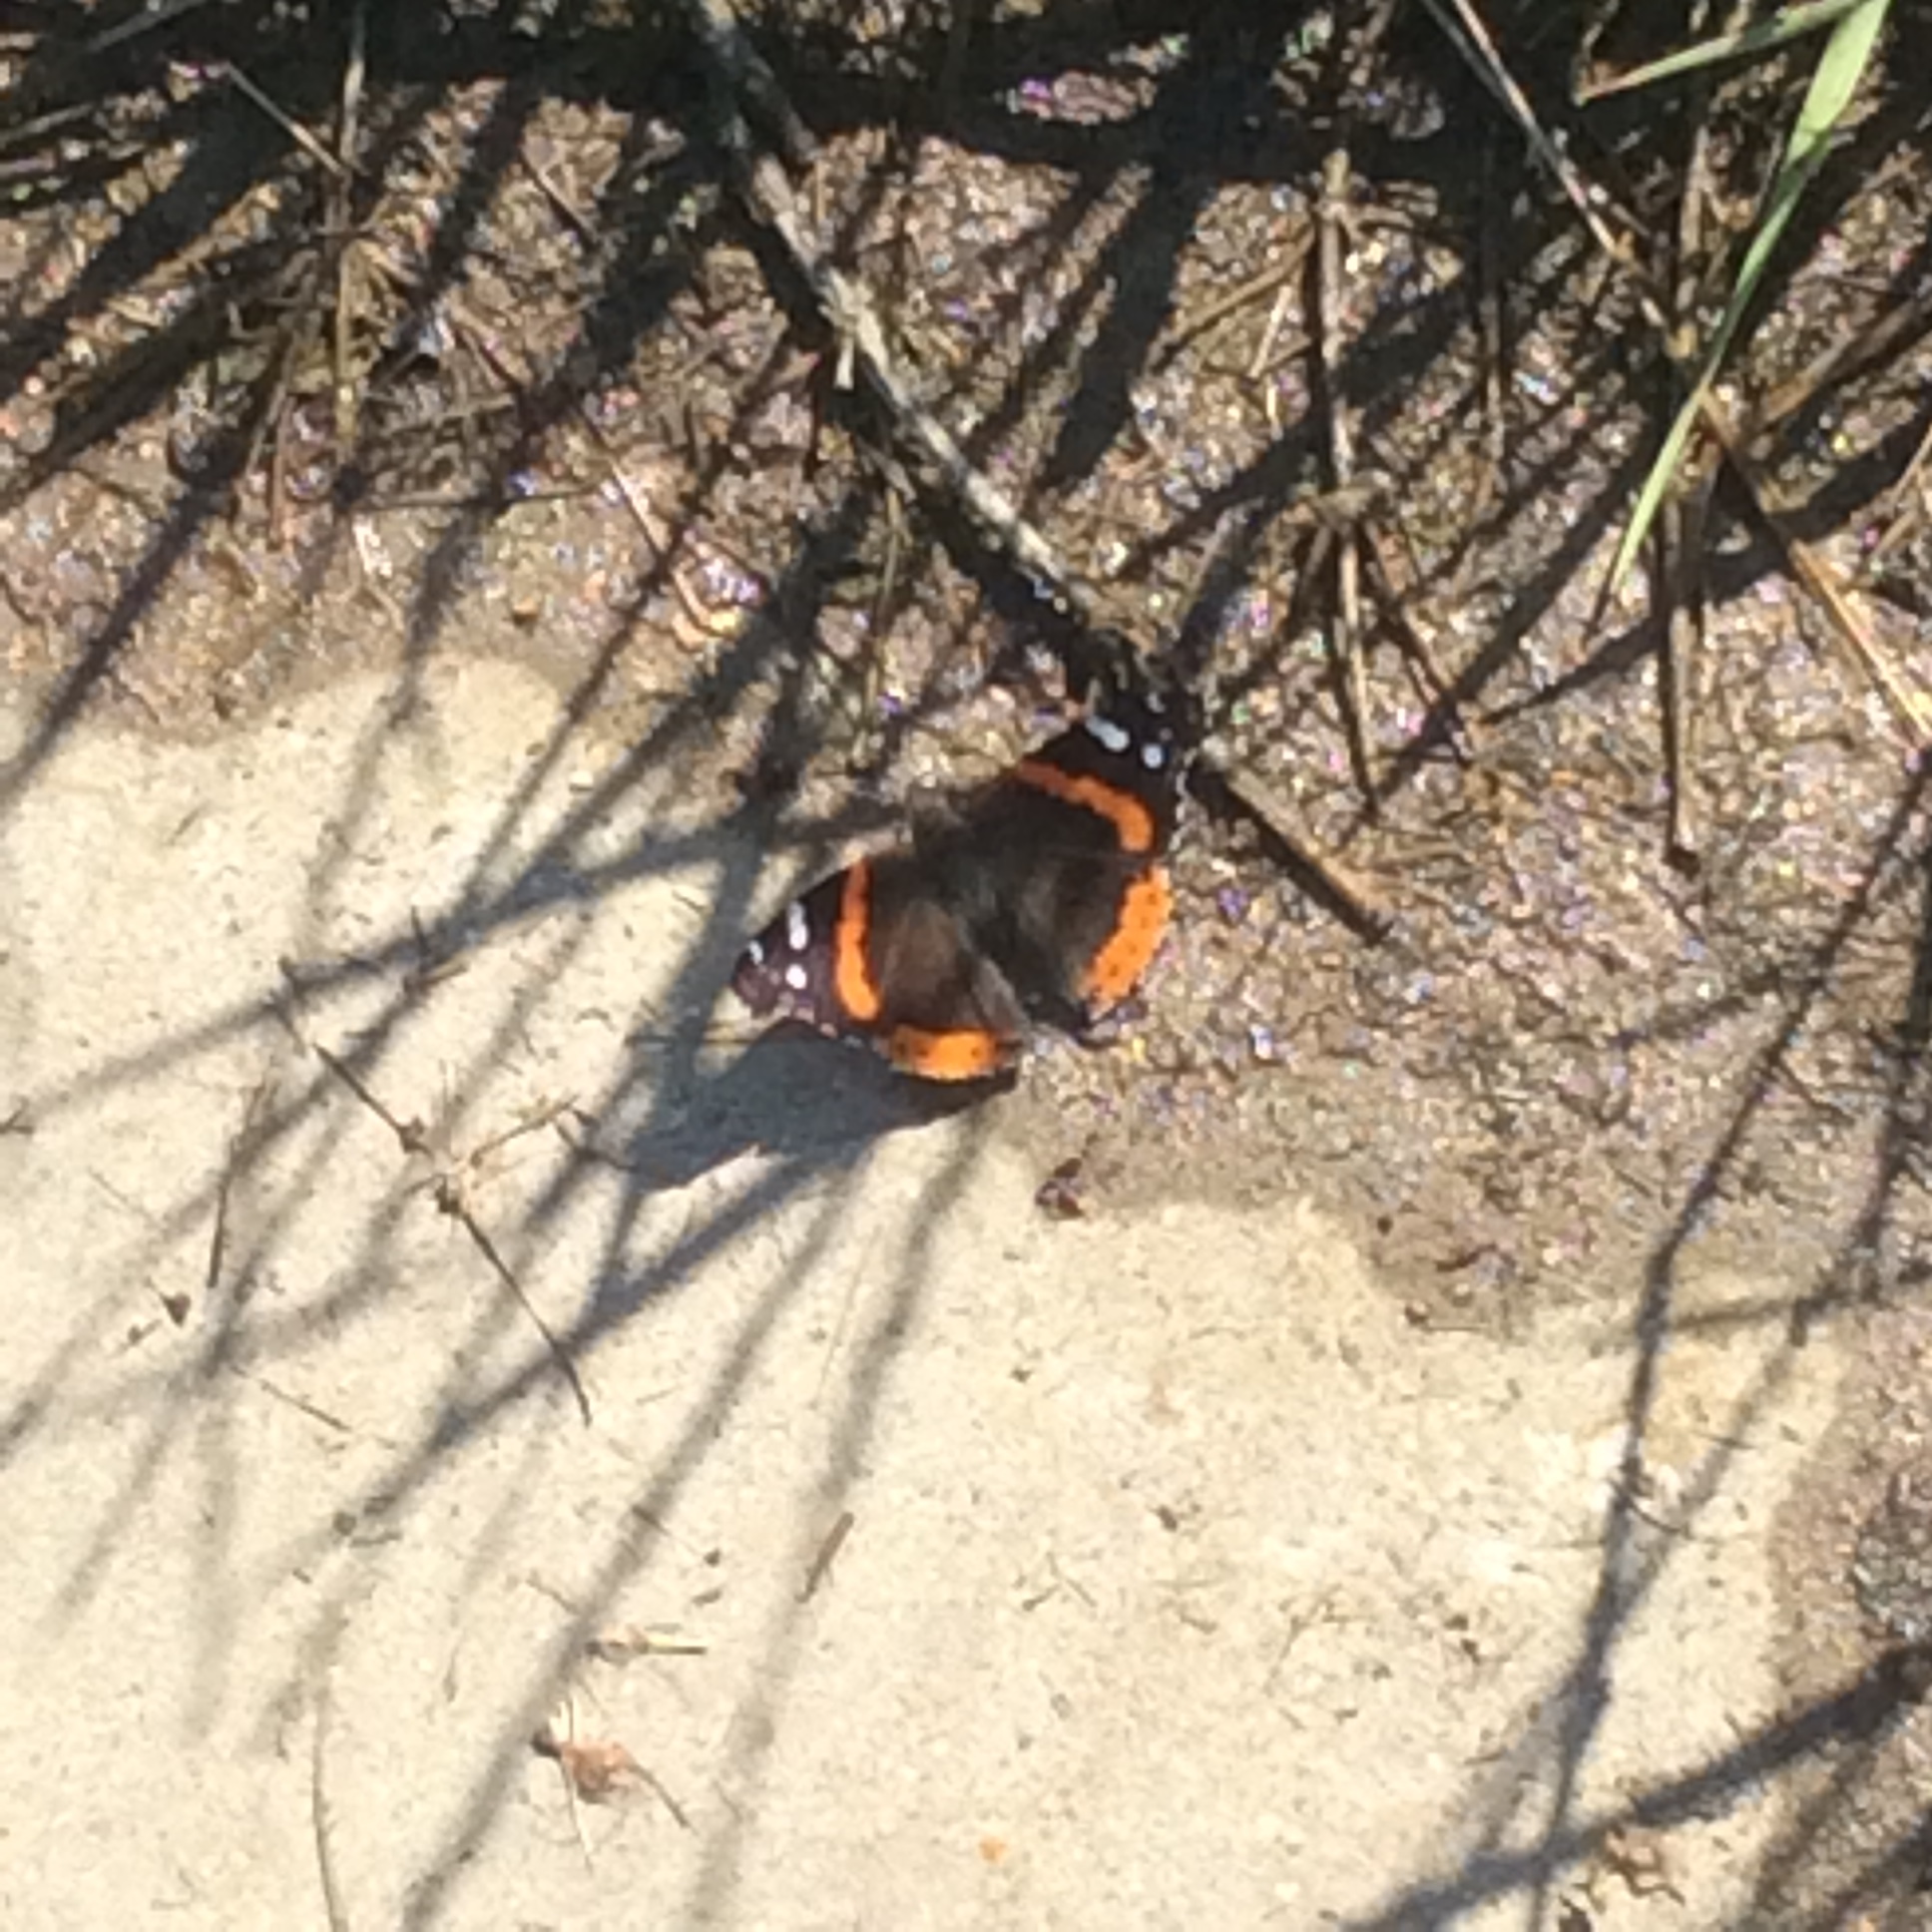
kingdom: Animalia
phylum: Arthropoda
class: Insecta
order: Lepidoptera
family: Nymphalidae
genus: Vanessa
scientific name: Vanessa atalanta
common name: Red admiral
